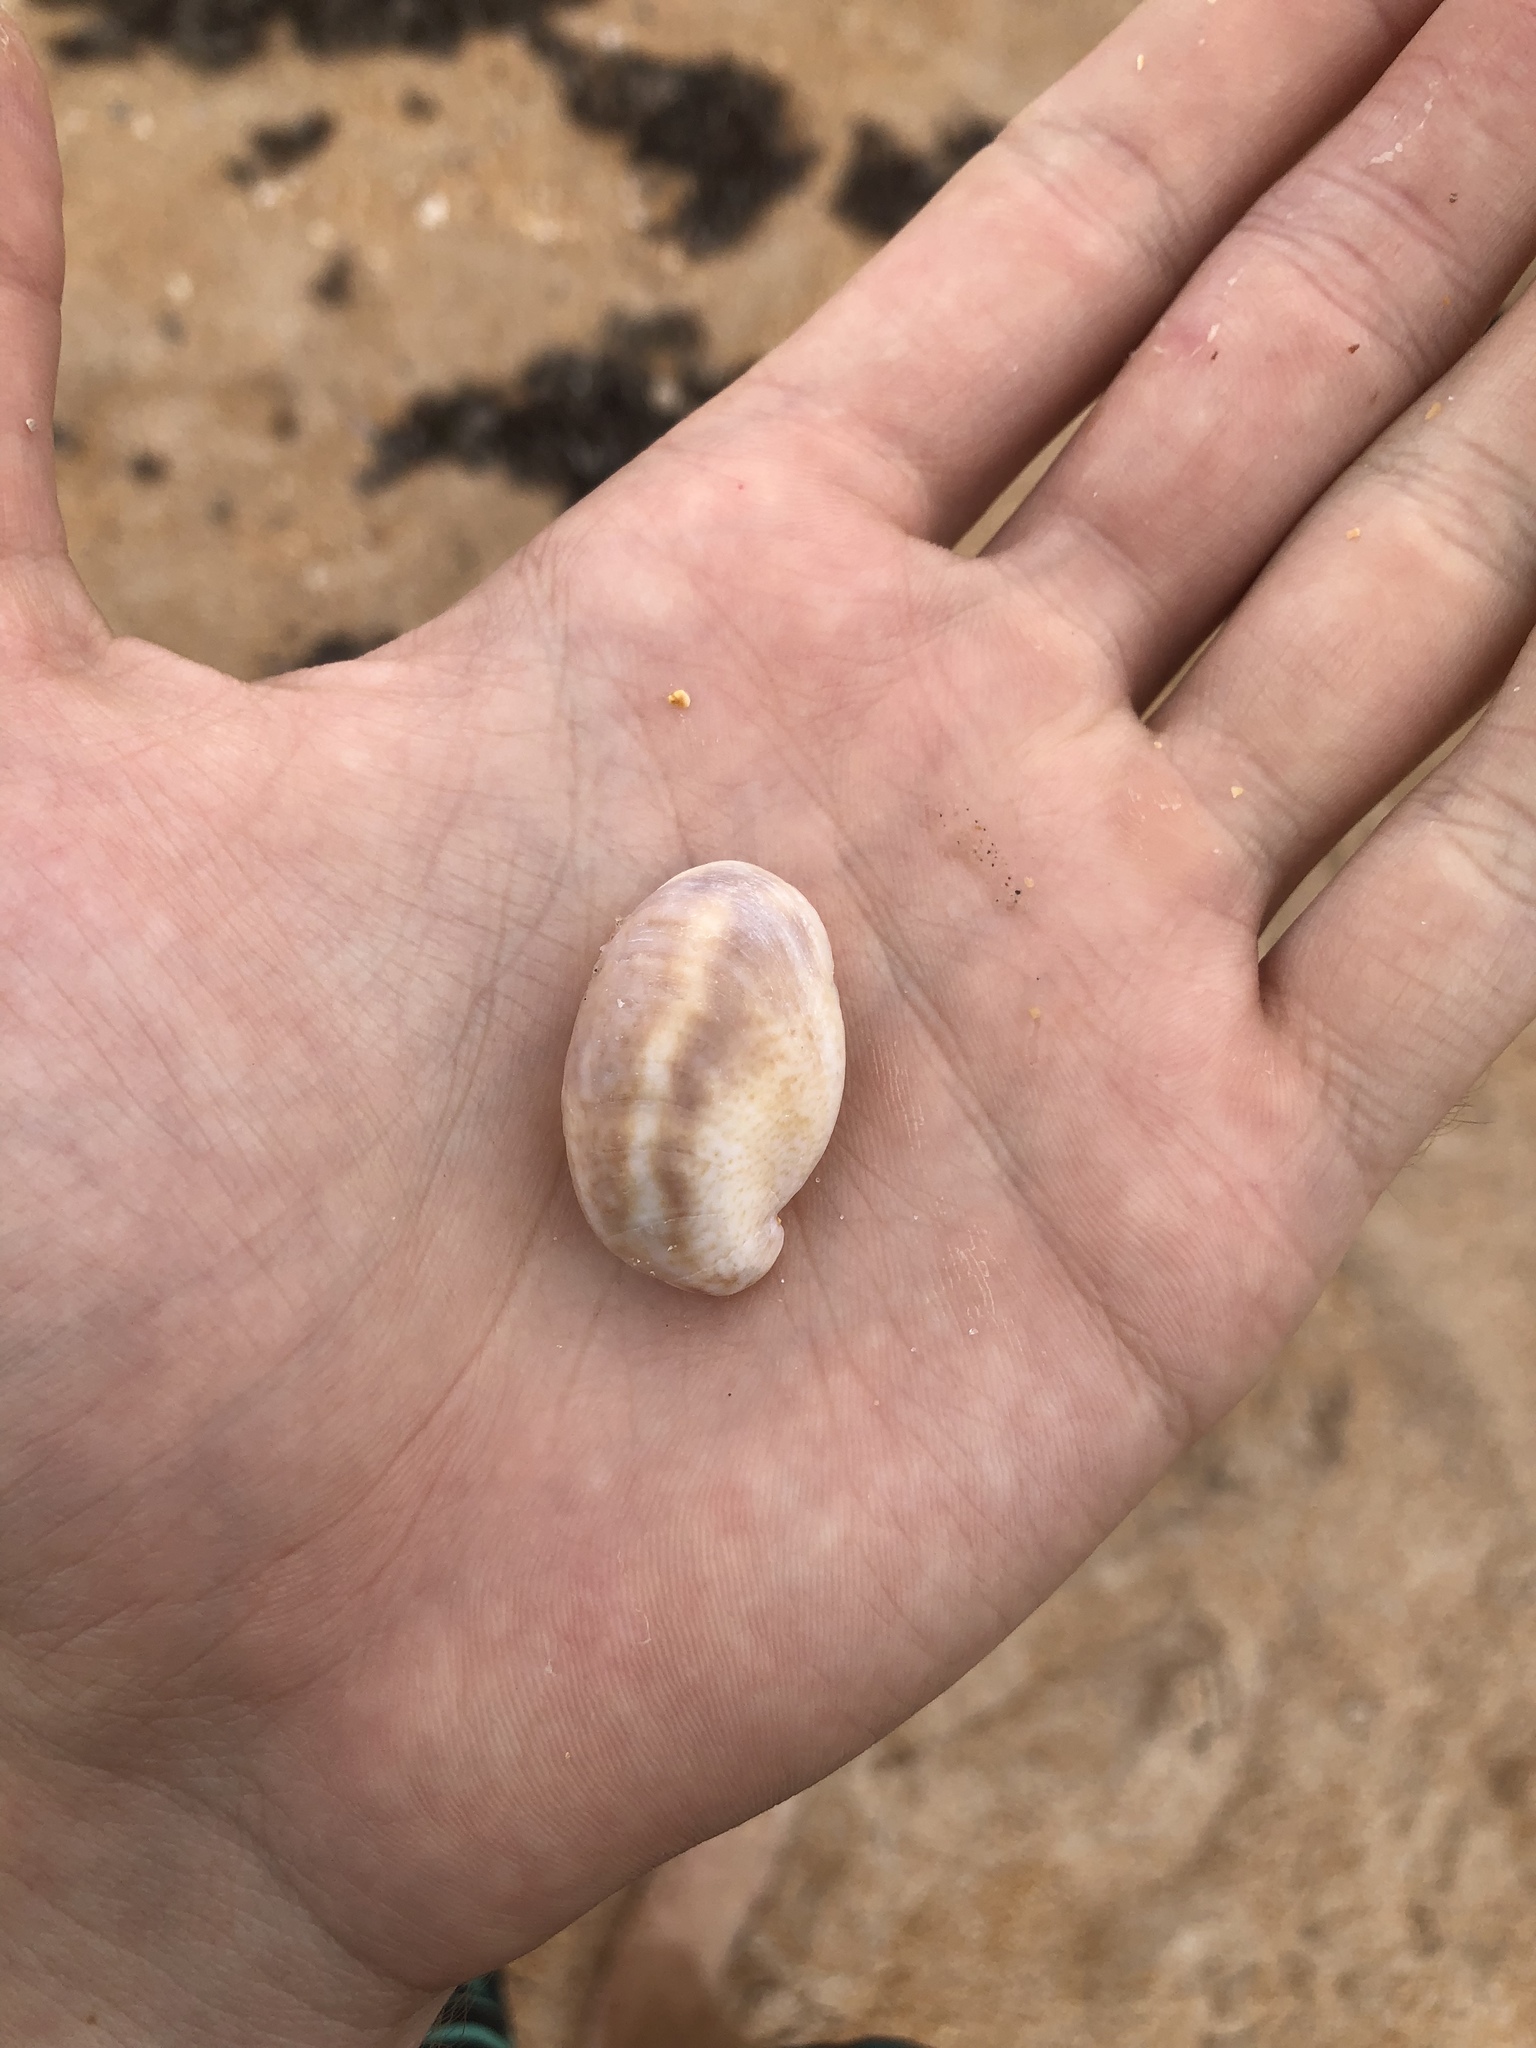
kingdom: Animalia
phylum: Mollusca
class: Gastropoda
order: Littorinimorpha
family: Calyptraeidae
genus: Crepidula
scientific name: Crepidula fornicata
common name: Slipper limpet
